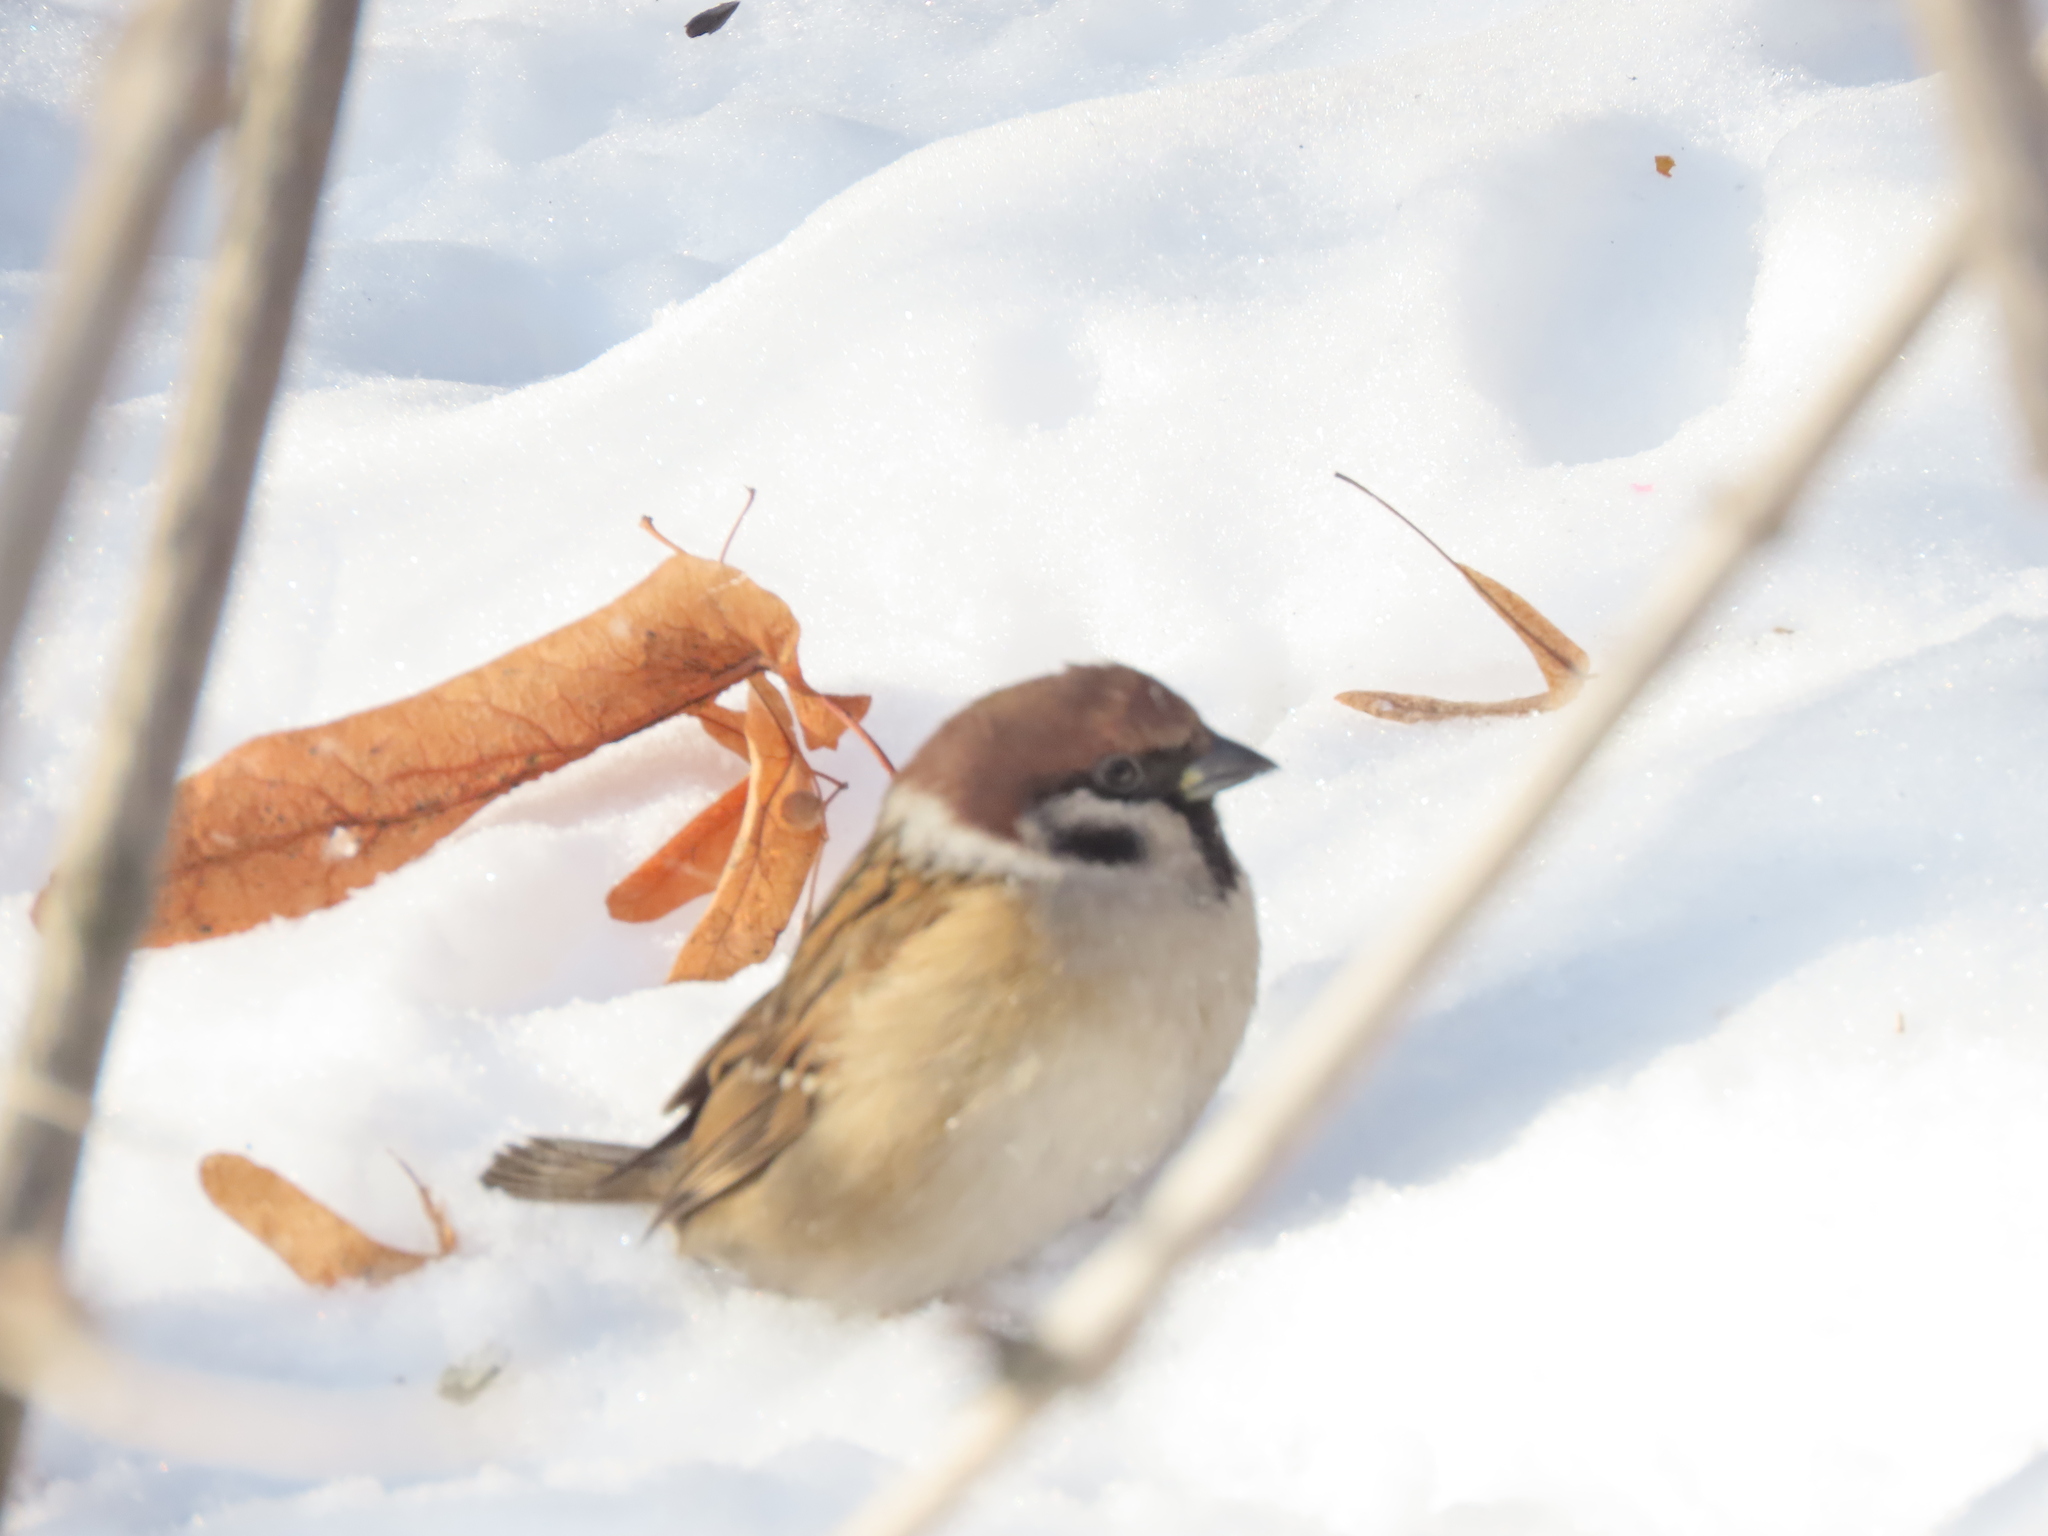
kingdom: Animalia
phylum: Chordata
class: Aves
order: Passeriformes
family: Passeridae
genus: Passer
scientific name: Passer montanus
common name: Eurasian tree sparrow
